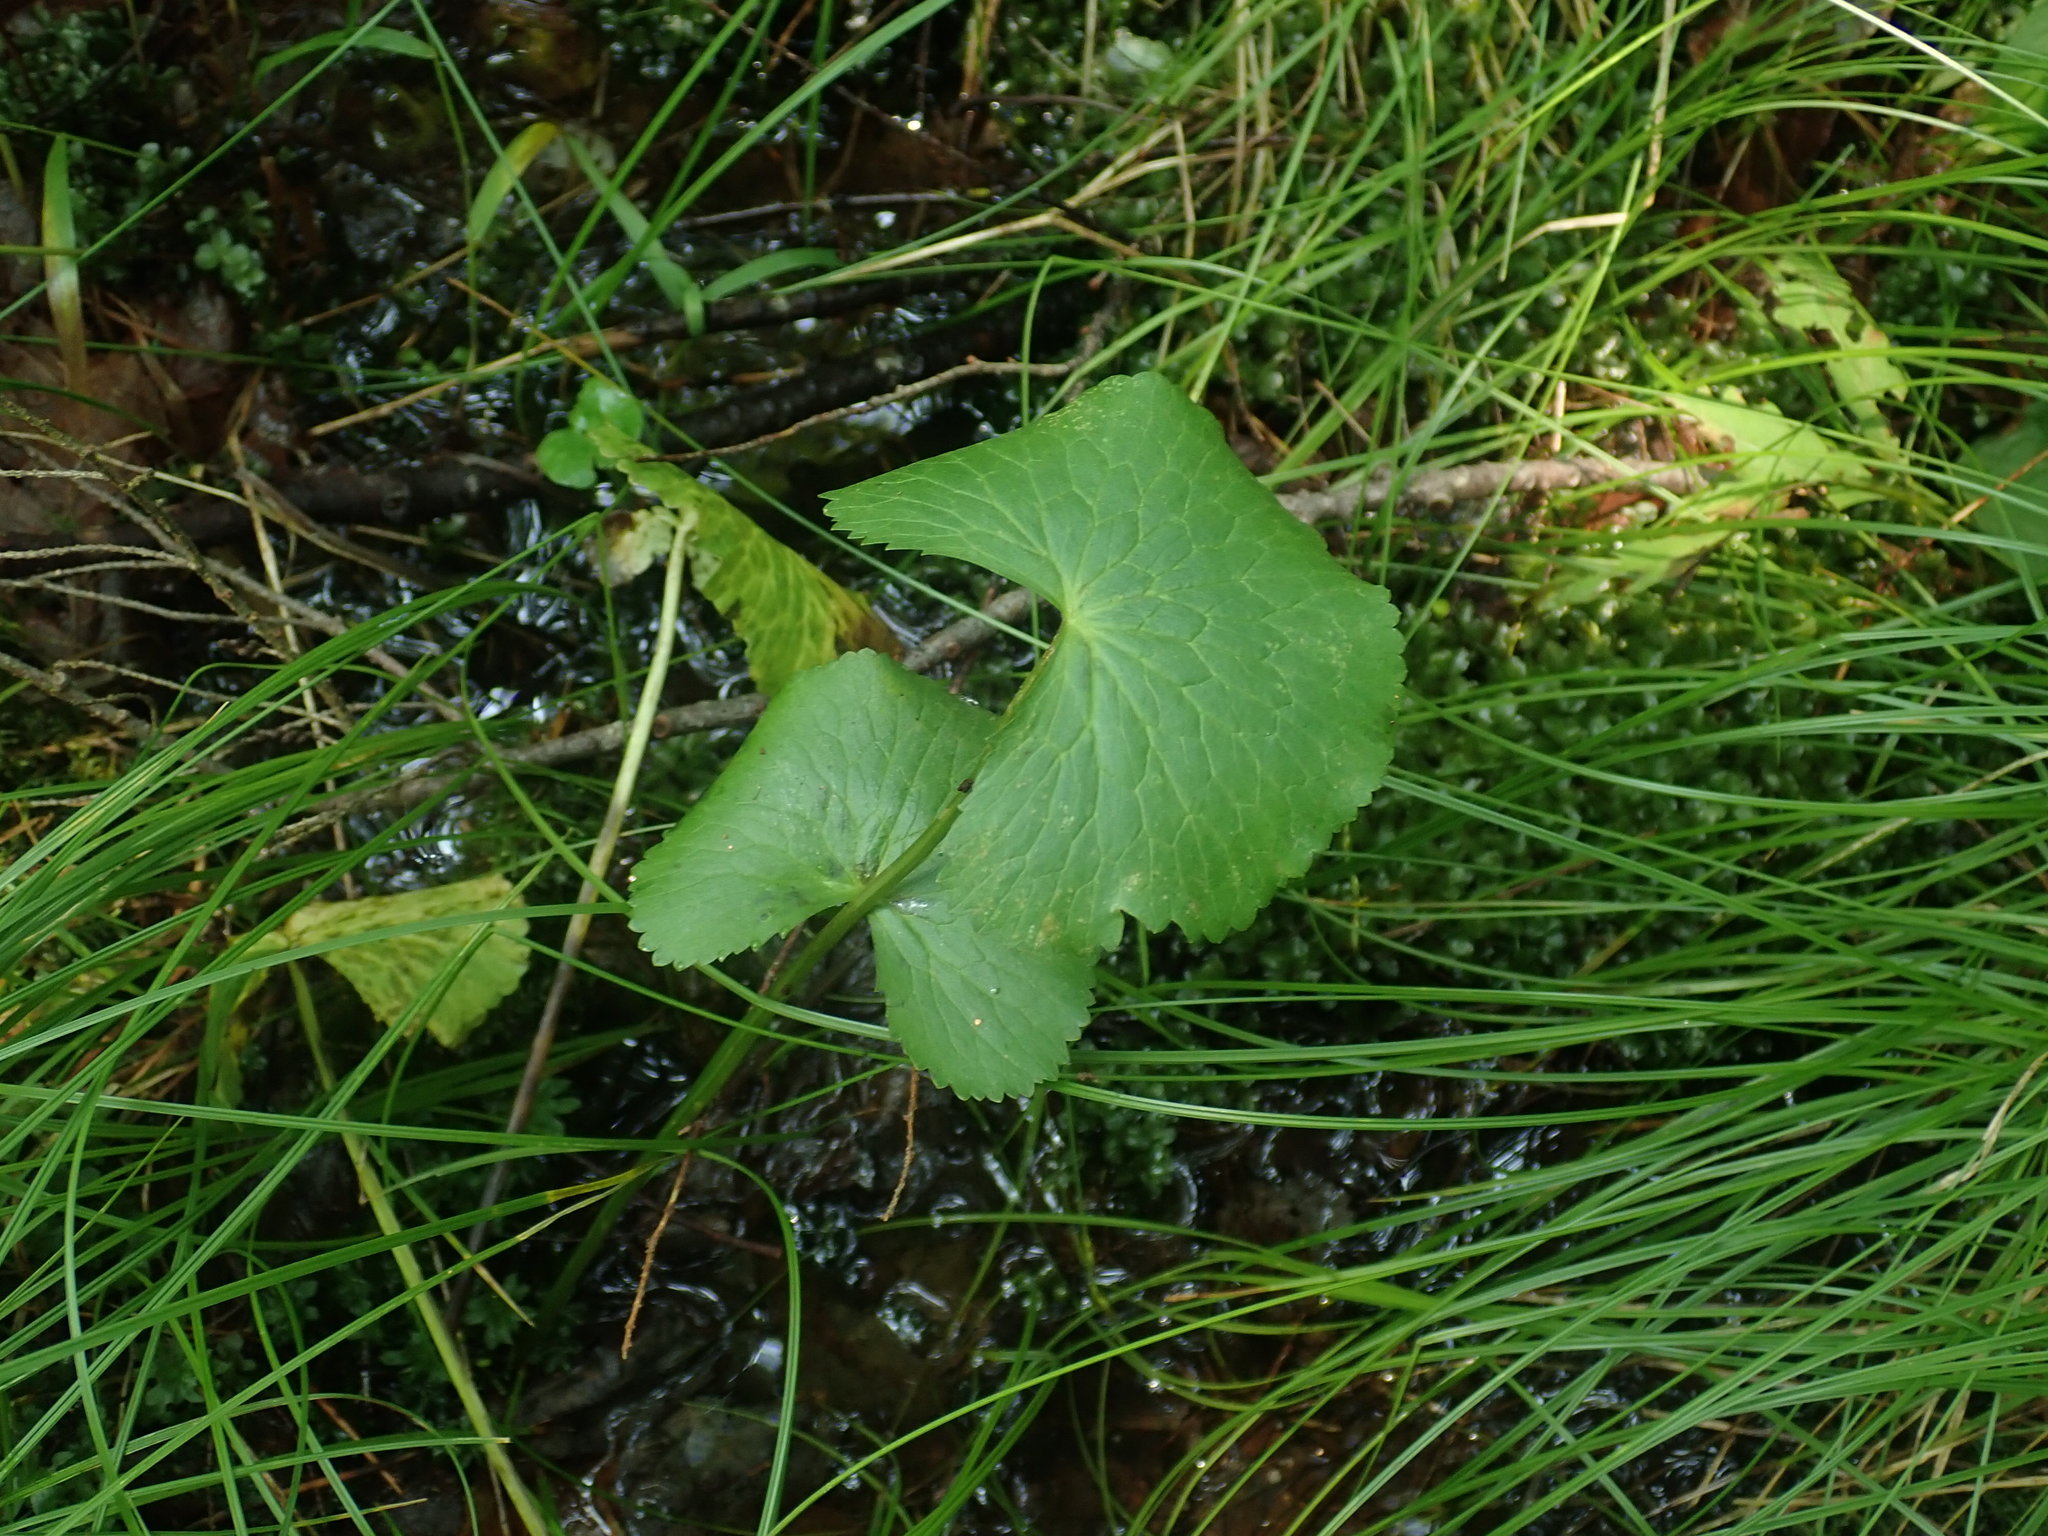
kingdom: Plantae
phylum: Tracheophyta
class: Magnoliopsida
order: Ranunculales
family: Ranunculaceae
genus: Caltha
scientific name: Caltha palustris
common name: Marsh marigold
